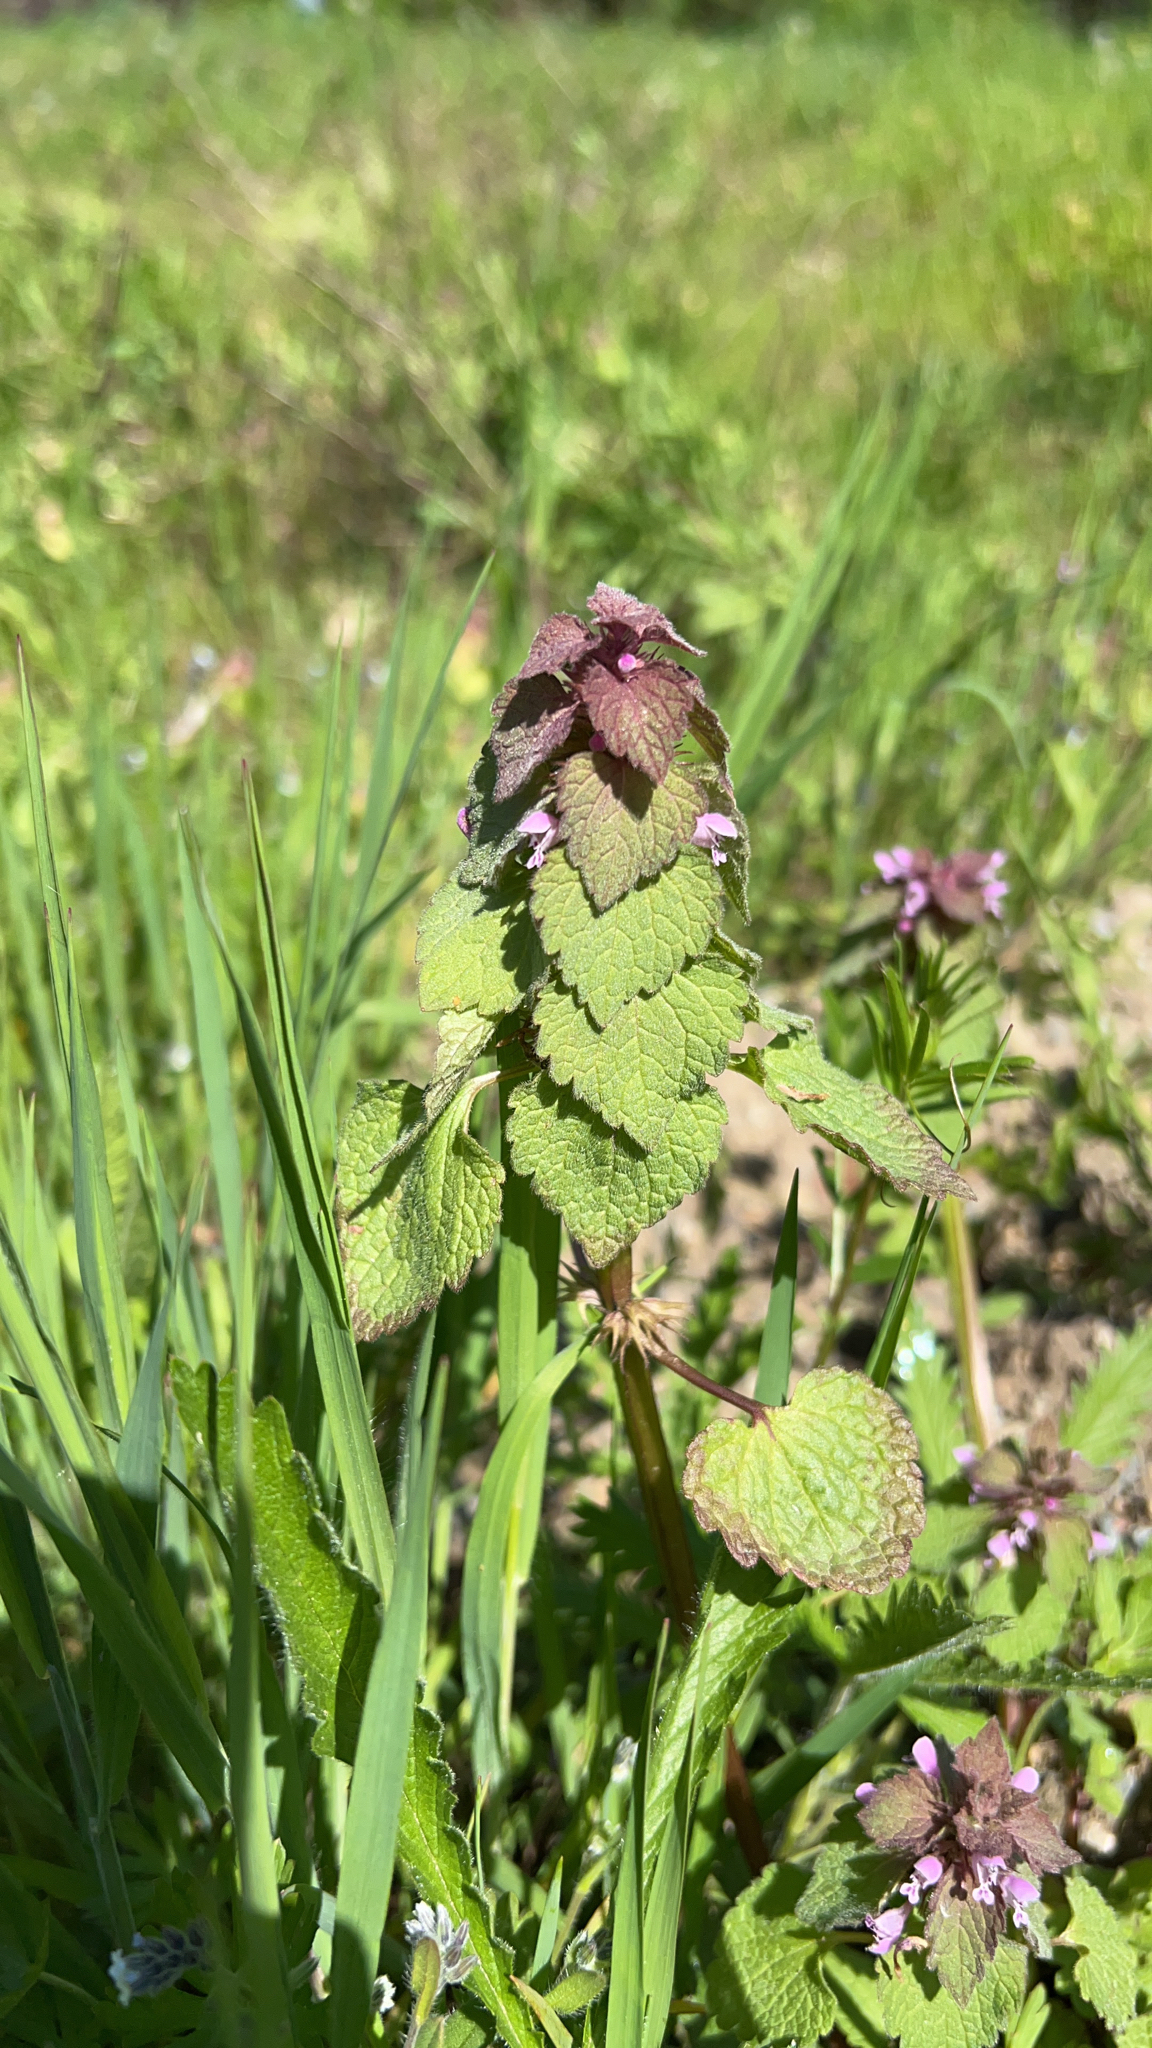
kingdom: Plantae
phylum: Tracheophyta
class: Magnoliopsida
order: Lamiales
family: Lamiaceae
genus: Lamium
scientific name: Lamium purpureum
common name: Red dead-nettle
